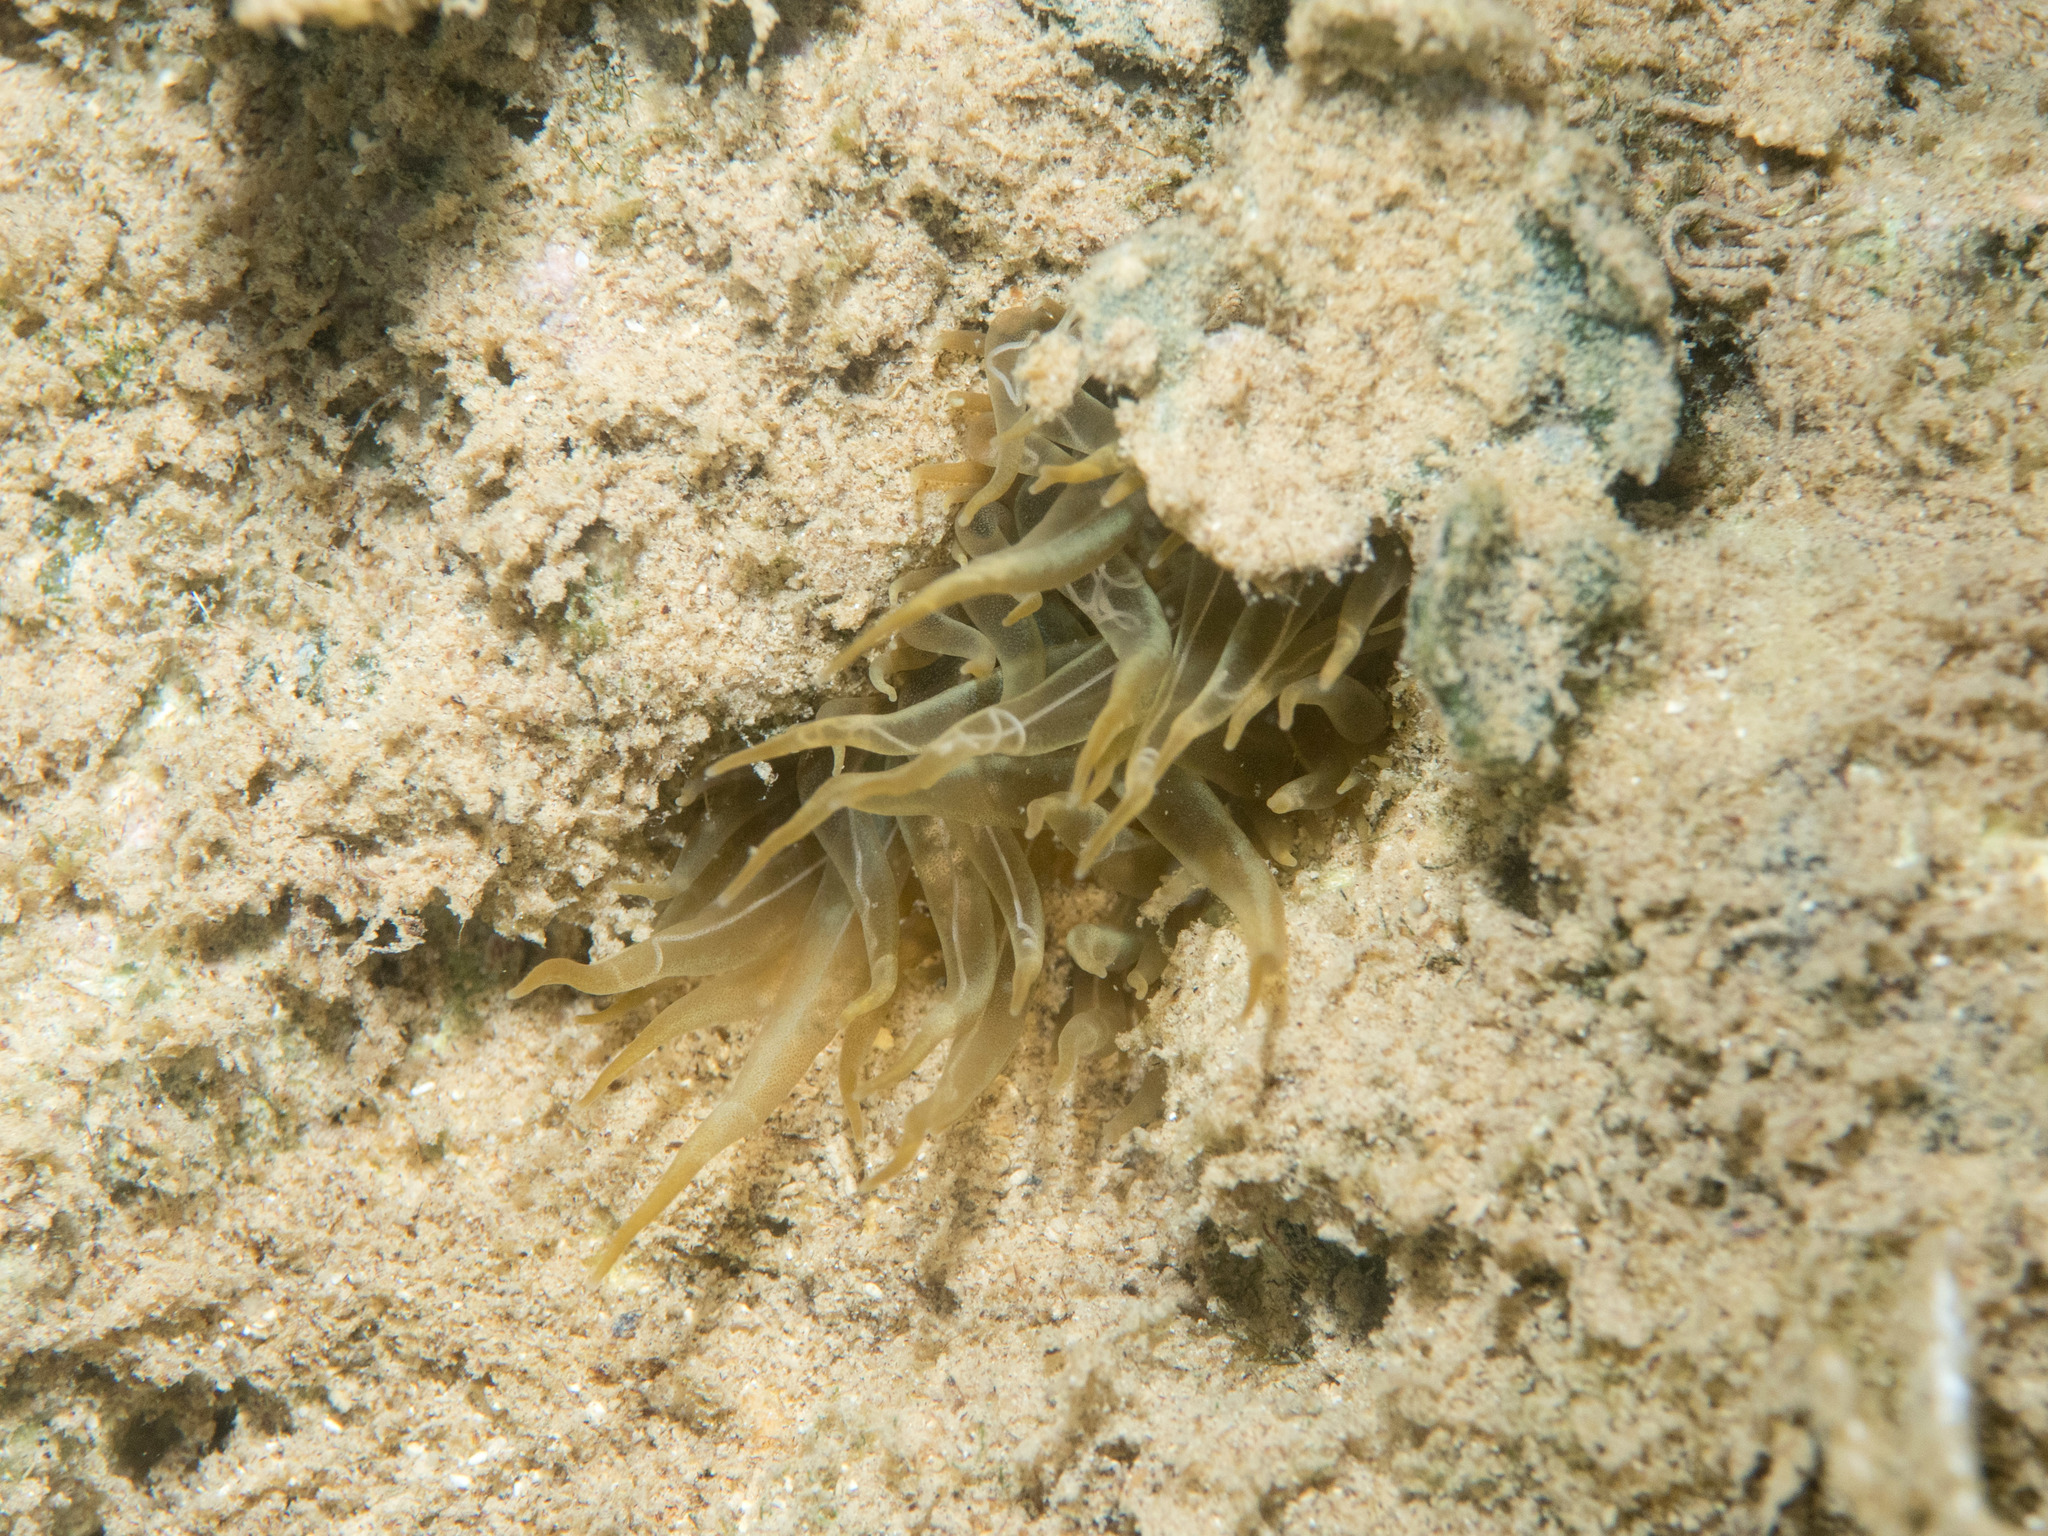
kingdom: Animalia
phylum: Cnidaria
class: Anthozoa
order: Actiniaria
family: Aiptasiidae
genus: Aiptasia
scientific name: Aiptasia couchii
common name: Trumpet anemone
